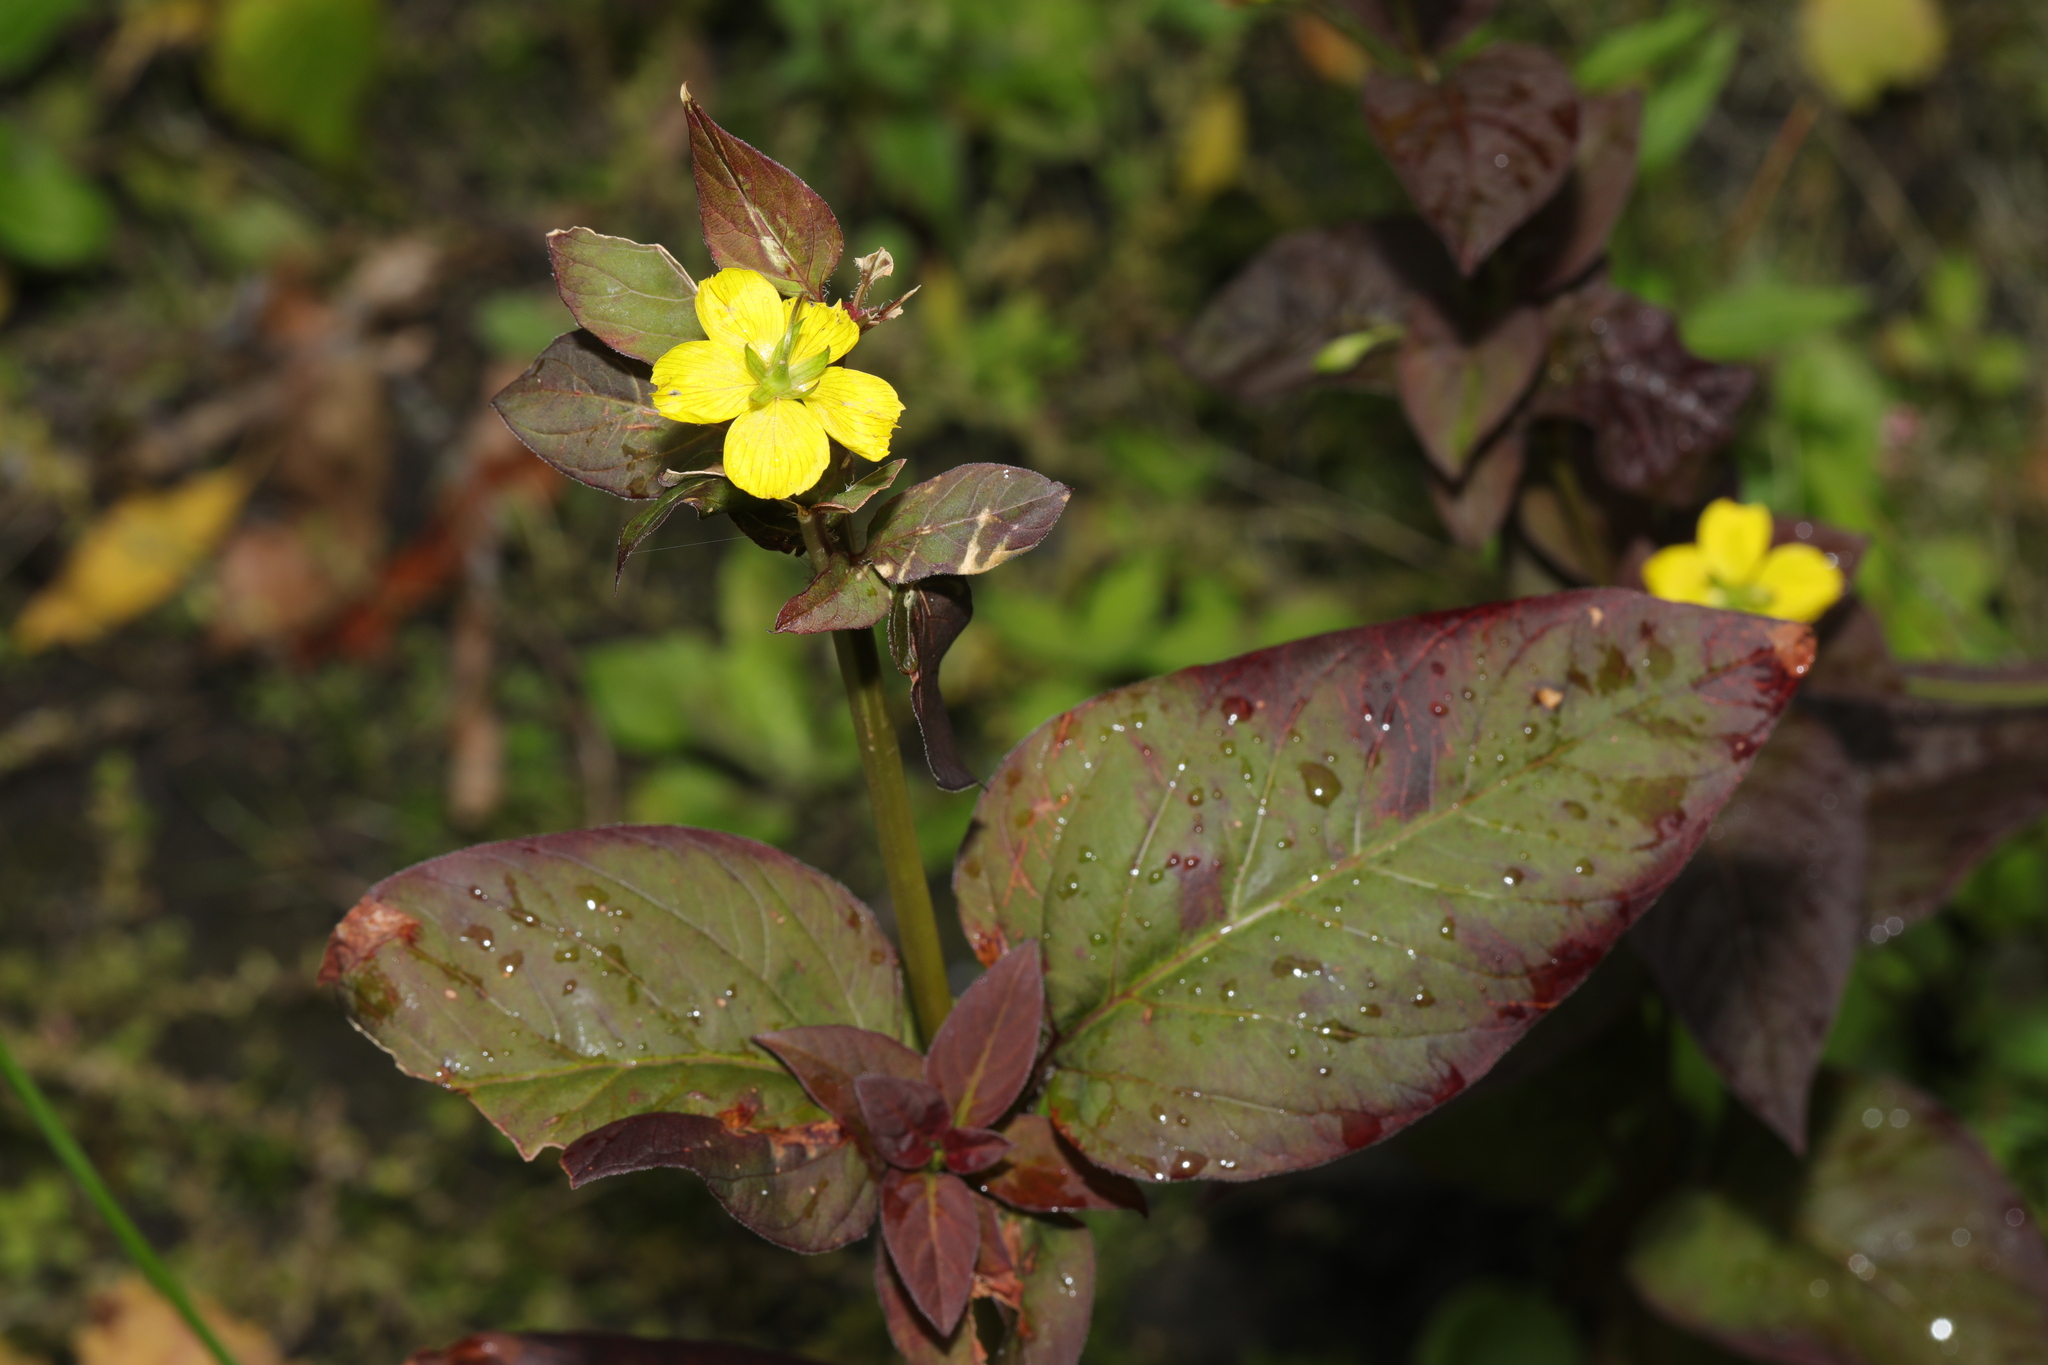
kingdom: Plantae
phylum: Tracheophyta
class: Magnoliopsida
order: Ericales
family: Primulaceae
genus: Lysimachia
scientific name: Lysimachia ciliata
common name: Fringed loosestrife
